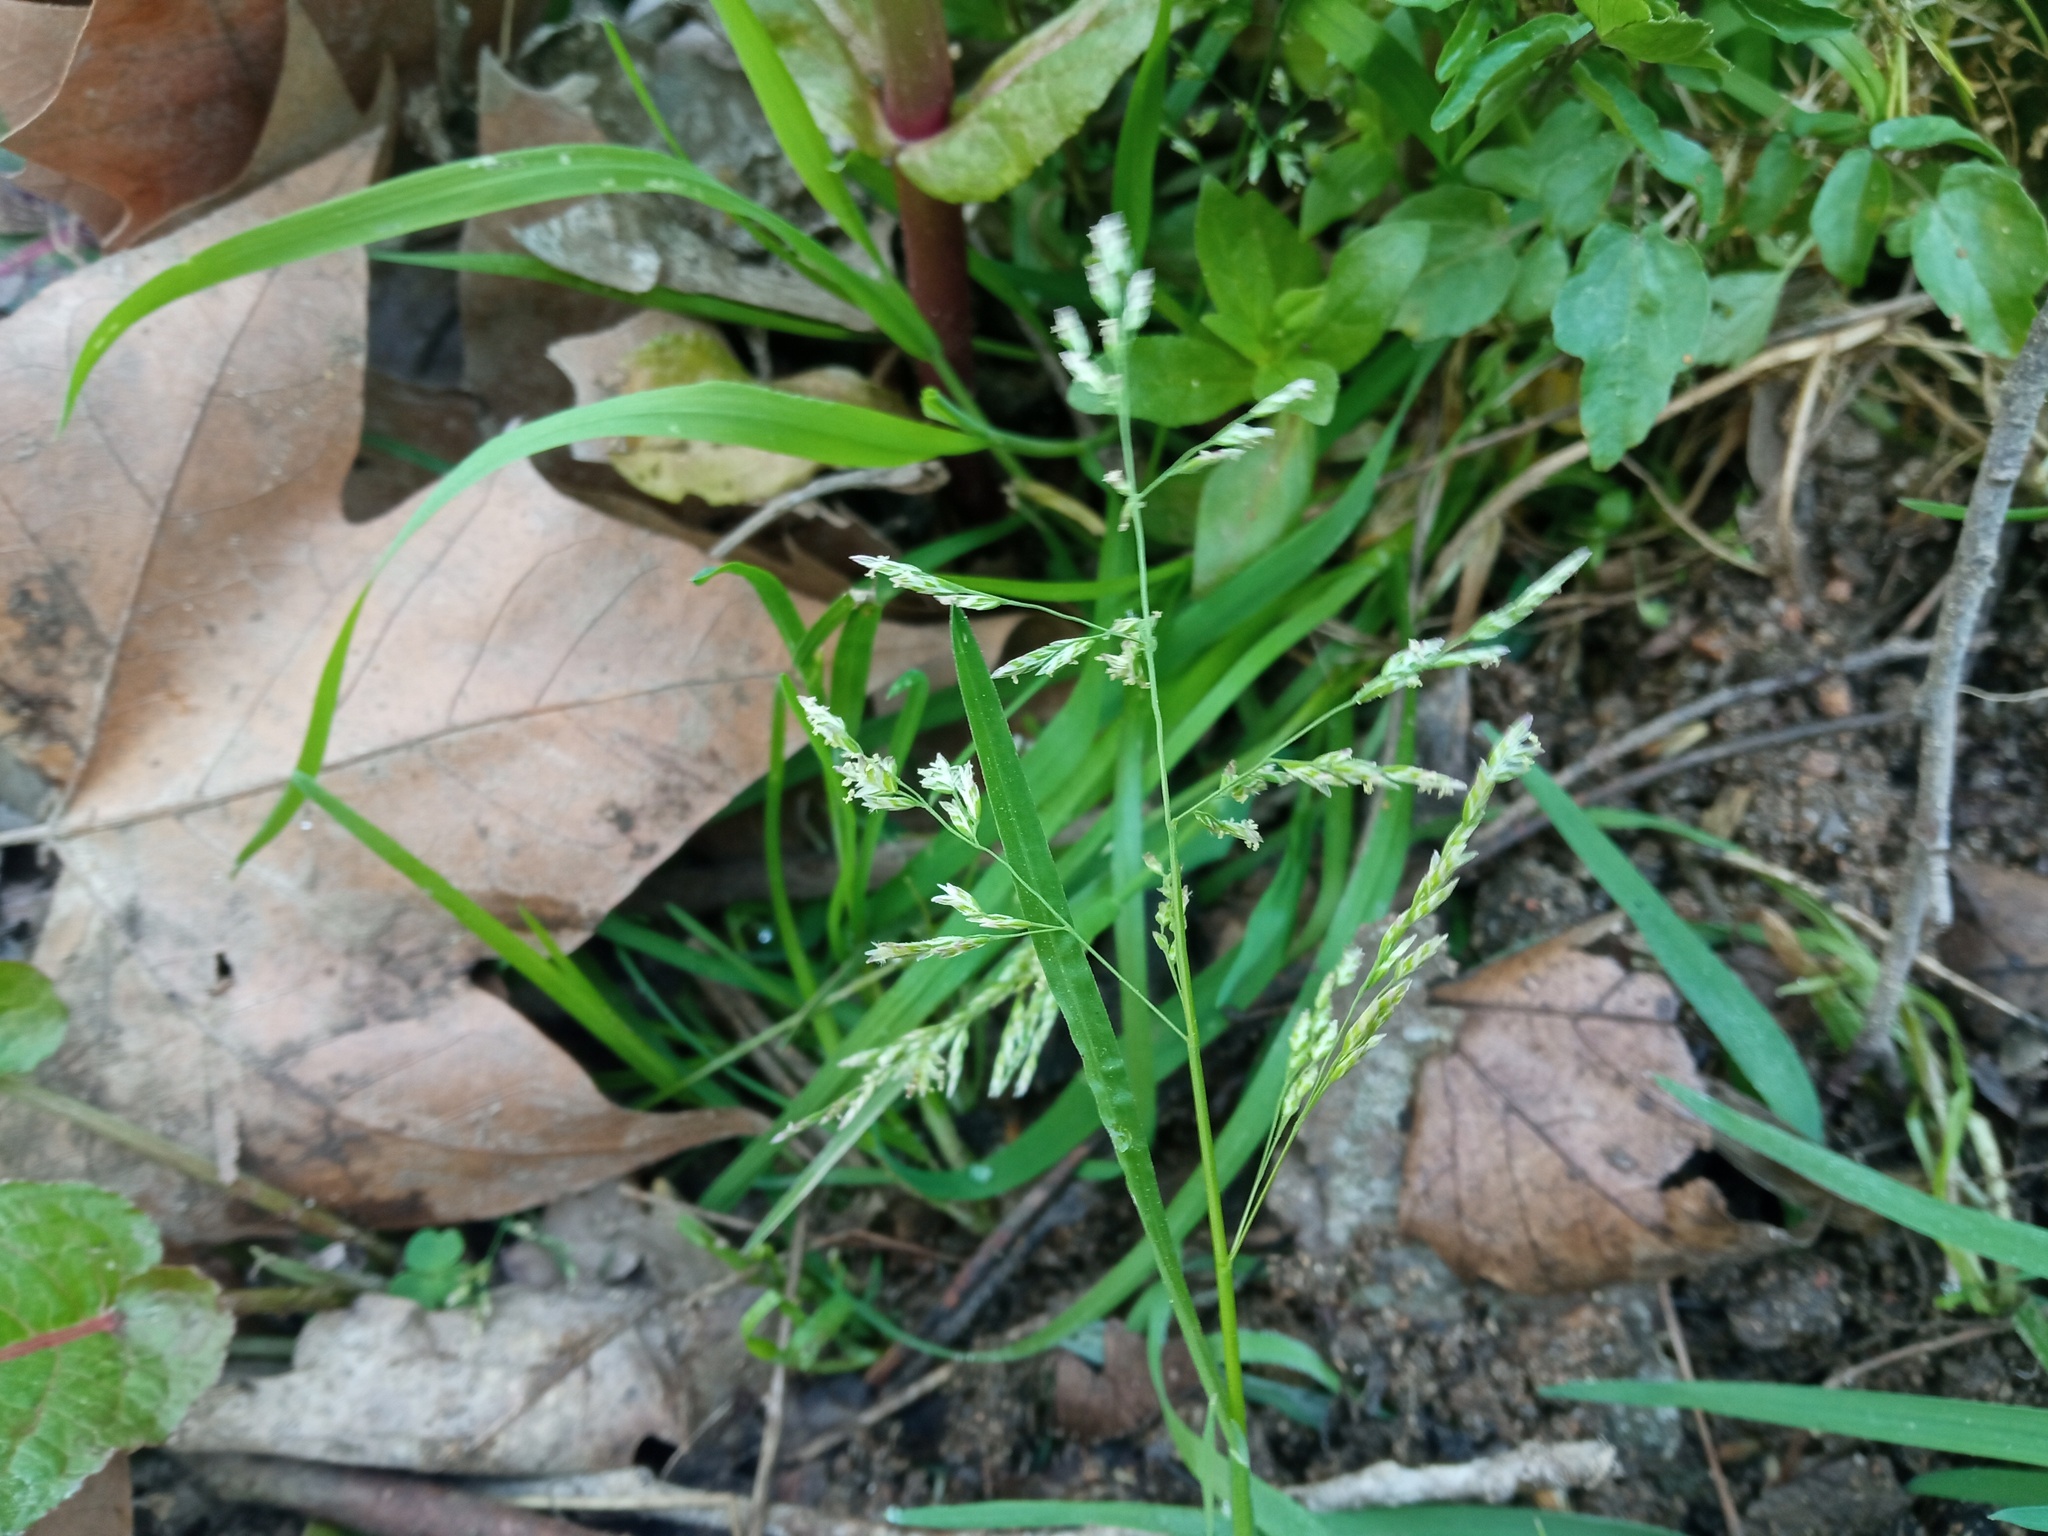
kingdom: Plantae
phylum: Tracheophyta
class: Liliopsida
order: Poales
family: Poaceae
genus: Poa
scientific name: Poa annua
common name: Annual bluegrass
